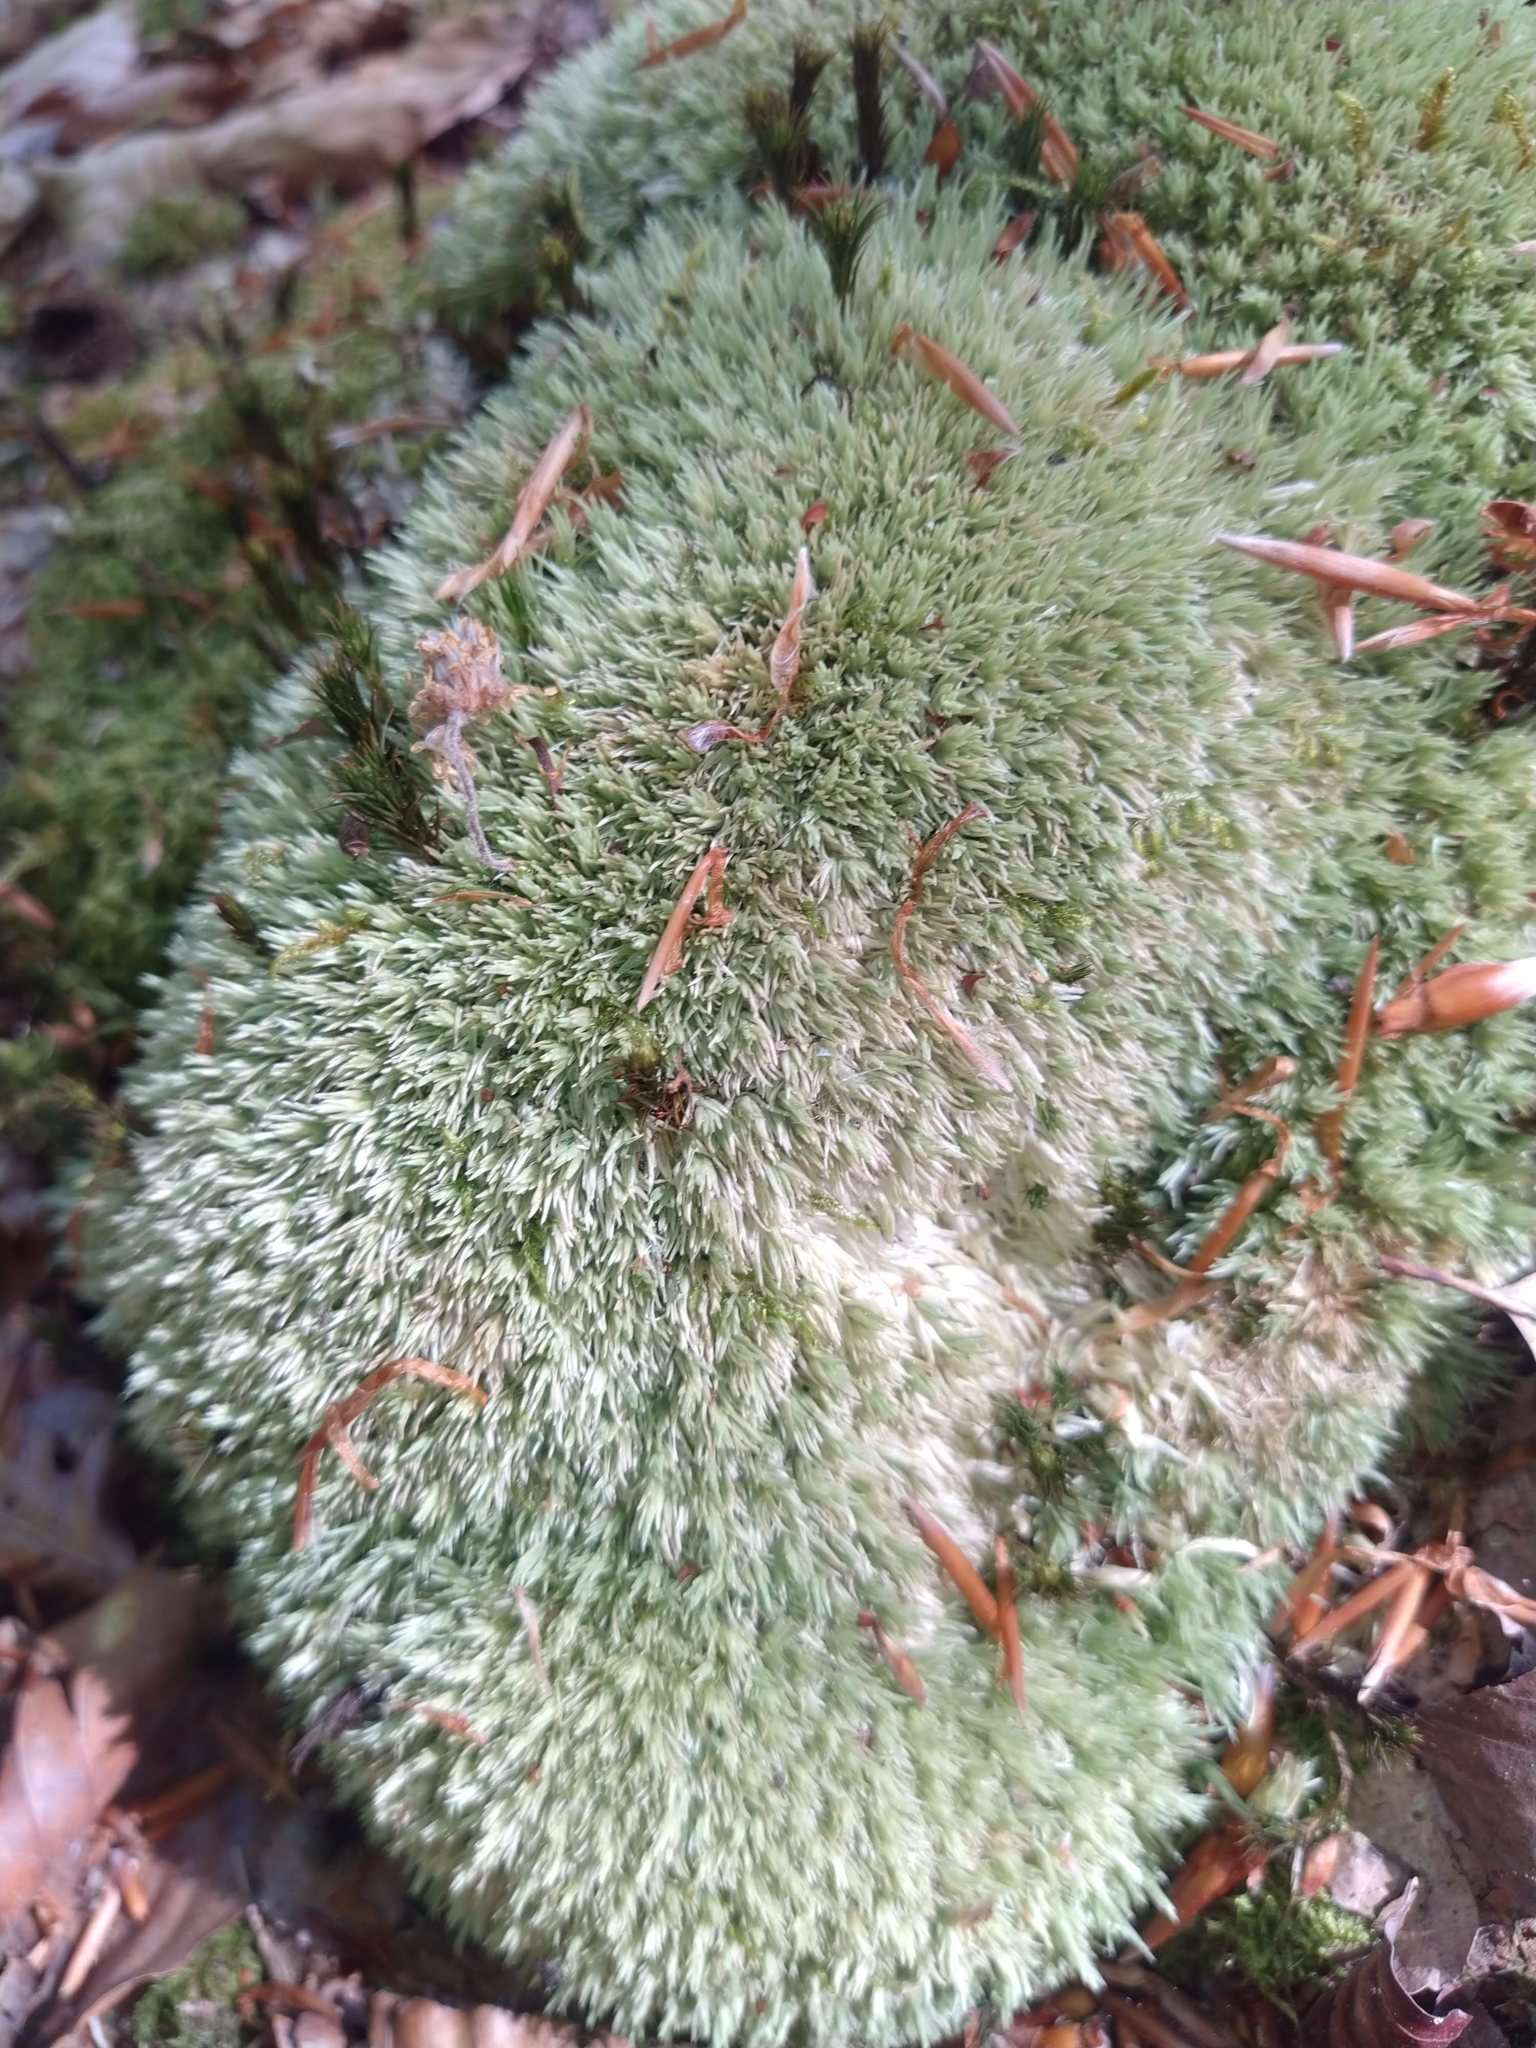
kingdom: Plantae
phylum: Bryophyta
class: Bryopsida
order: Dicranales
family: Leucobryaceae
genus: Leucobryum
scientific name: Leucobryum glaucum
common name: Large white-moss
